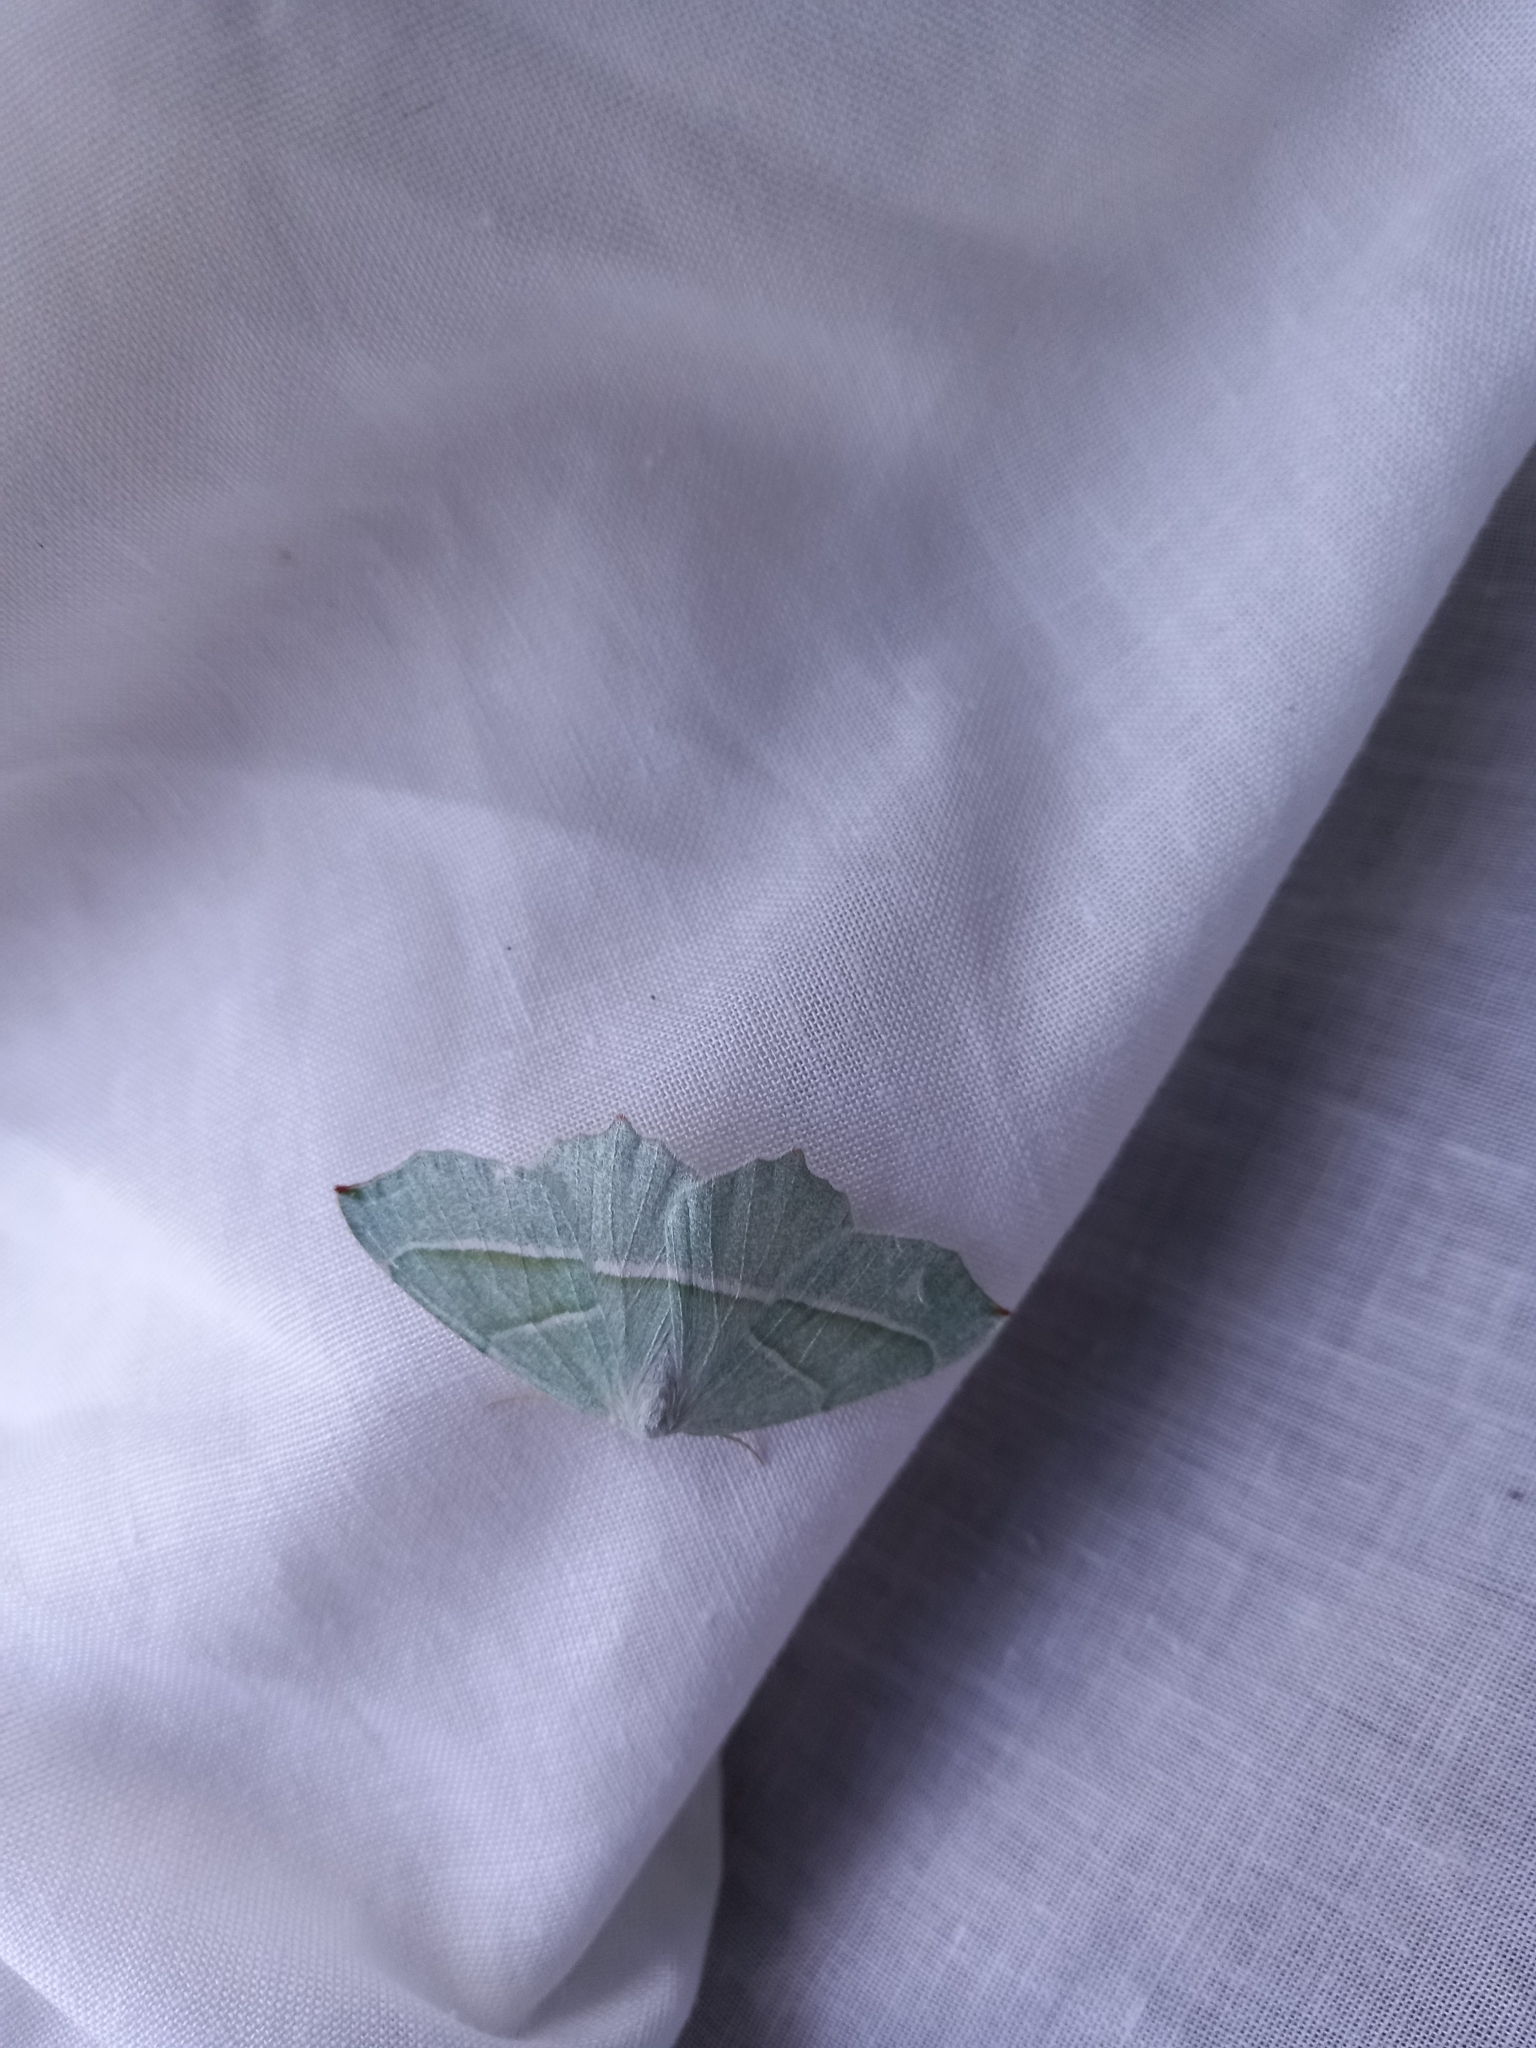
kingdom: Animalia
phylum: Arthropoda
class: Insecta
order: Lepidoptera
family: Geometridae
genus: Campaea
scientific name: Campaea margaritaria
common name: Light emerald
